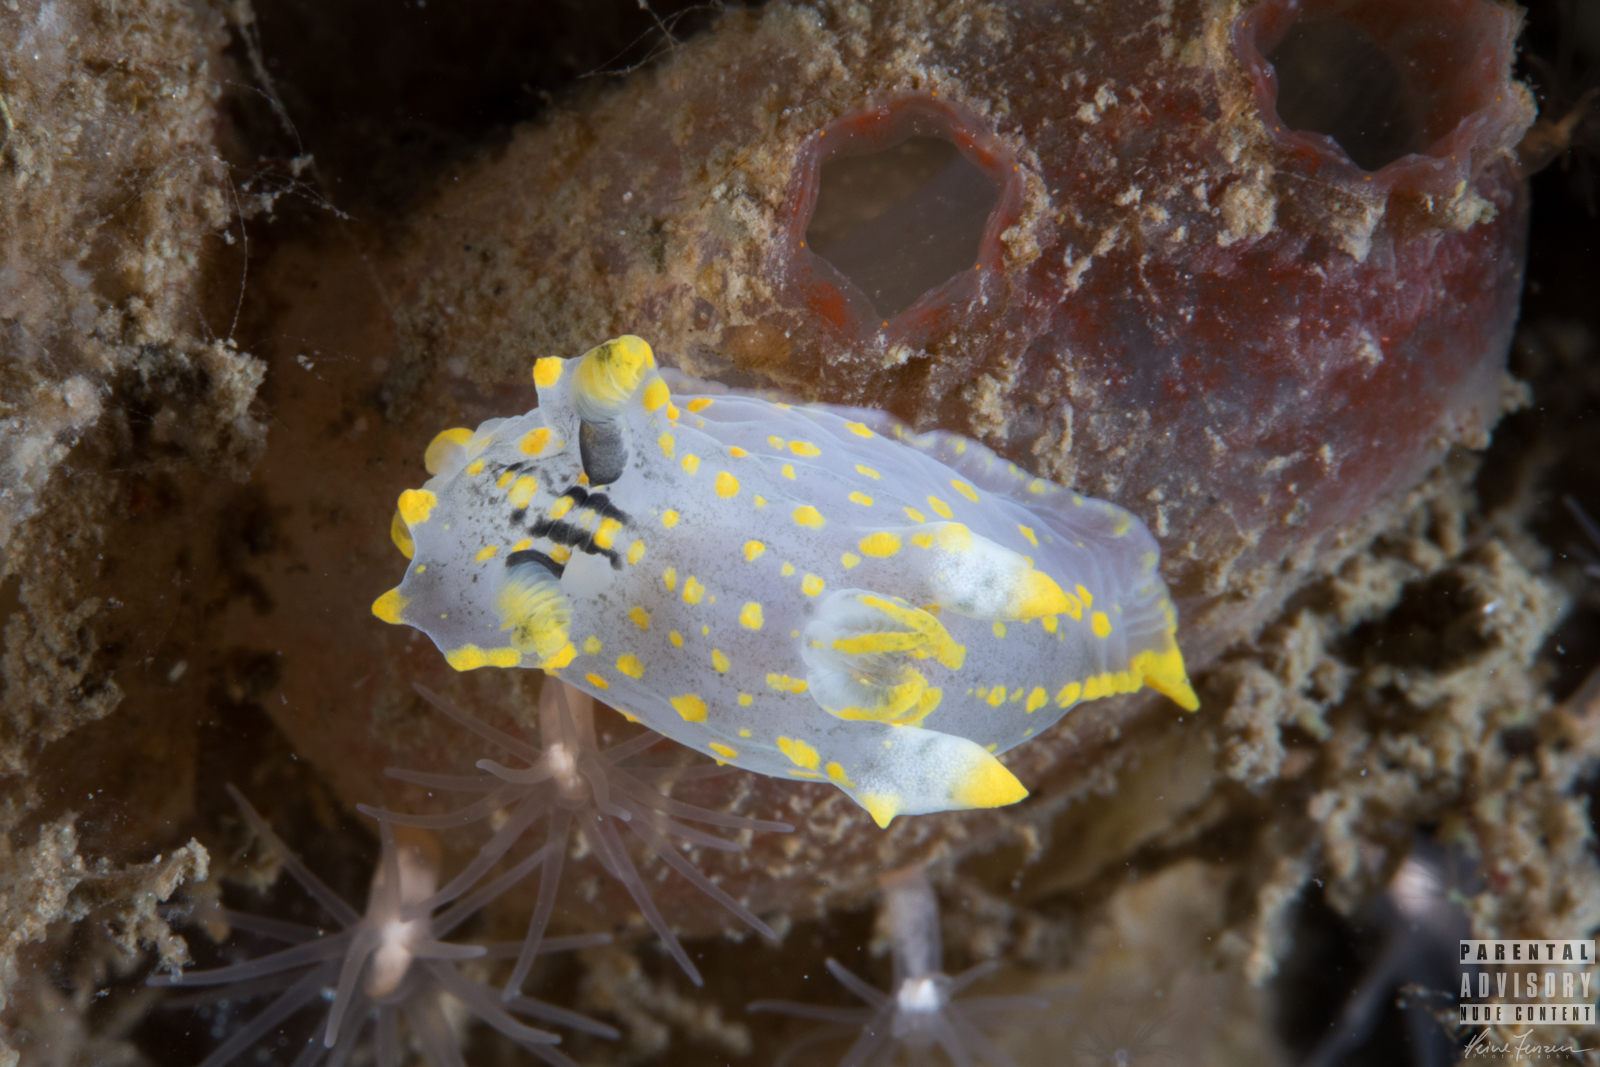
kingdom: Animalia
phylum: Mollusca
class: Gastropoda
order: Nudibranchia
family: Polyceridae
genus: Polycera
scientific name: Polycera quadrilineata
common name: Four-striped polycera
